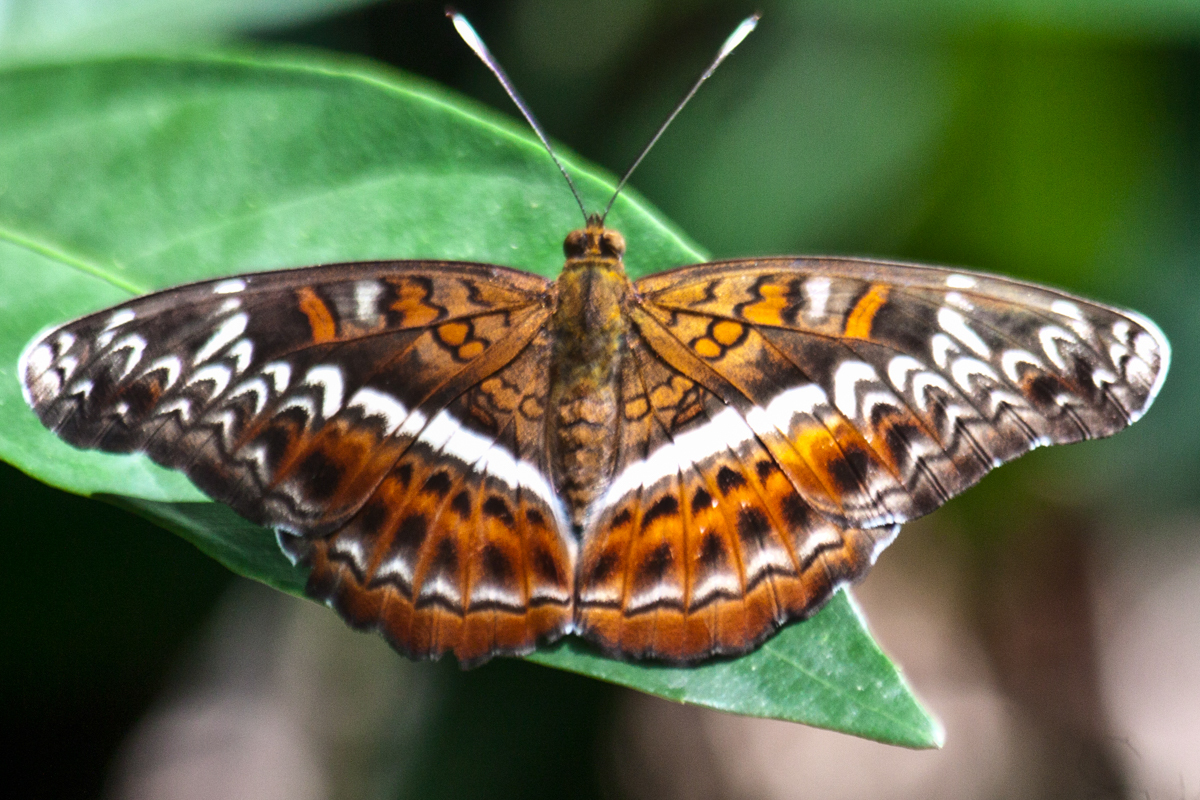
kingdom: Animalia
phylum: Arthropoda
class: Insecta
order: Lepidoptera
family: Nymphalidae
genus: Lebadea
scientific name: Lebadea martha
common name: Knight
